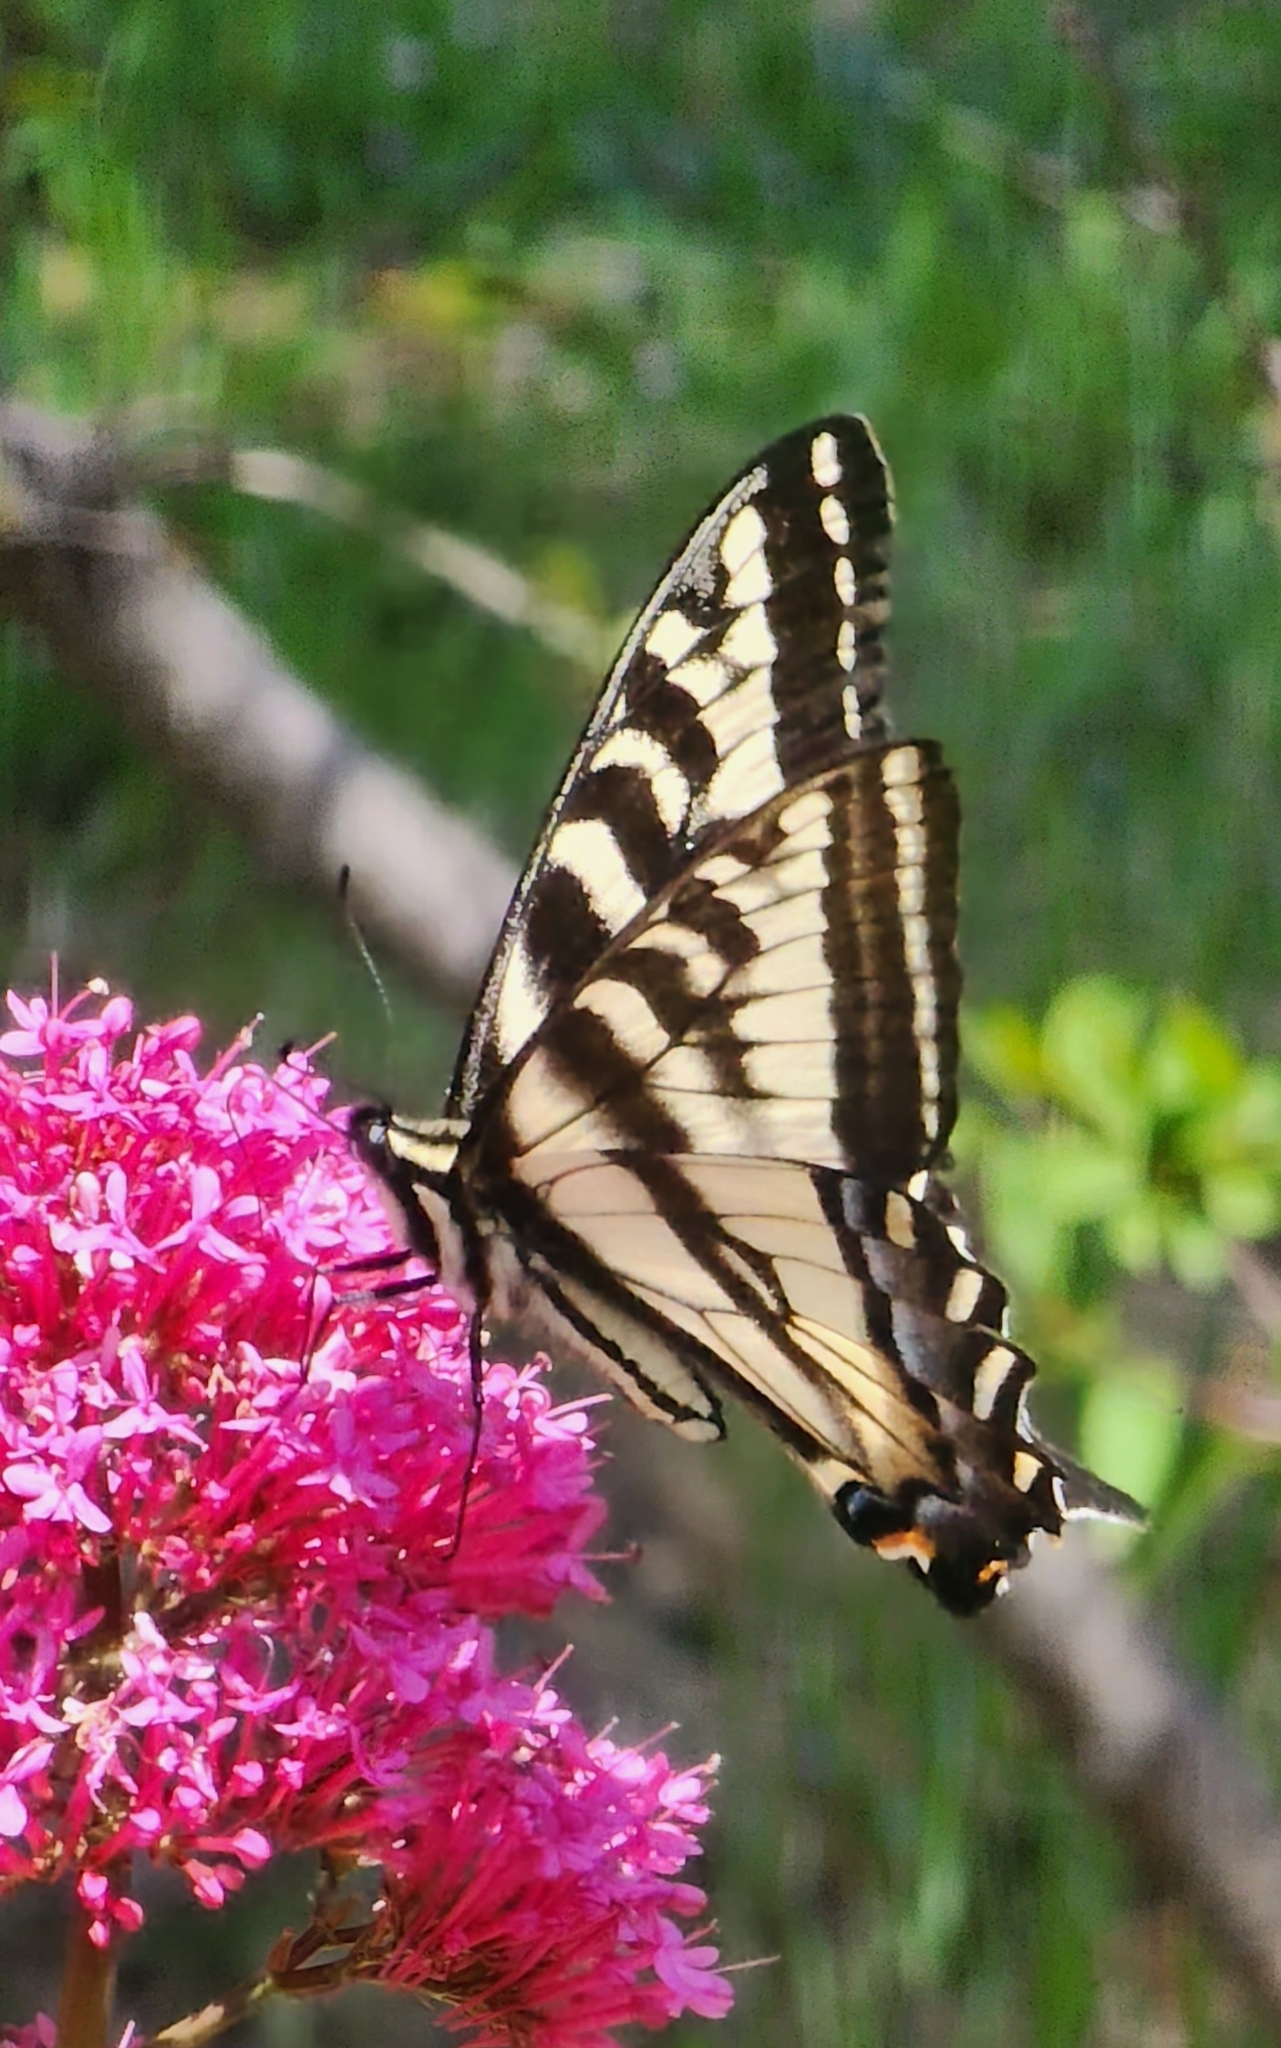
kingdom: Animalia
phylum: Arthropoda
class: Insecta
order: Lepidoptera
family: Papilionidae
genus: Papilio
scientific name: Papilio eurymedon
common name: Pale tiger swallowtail
